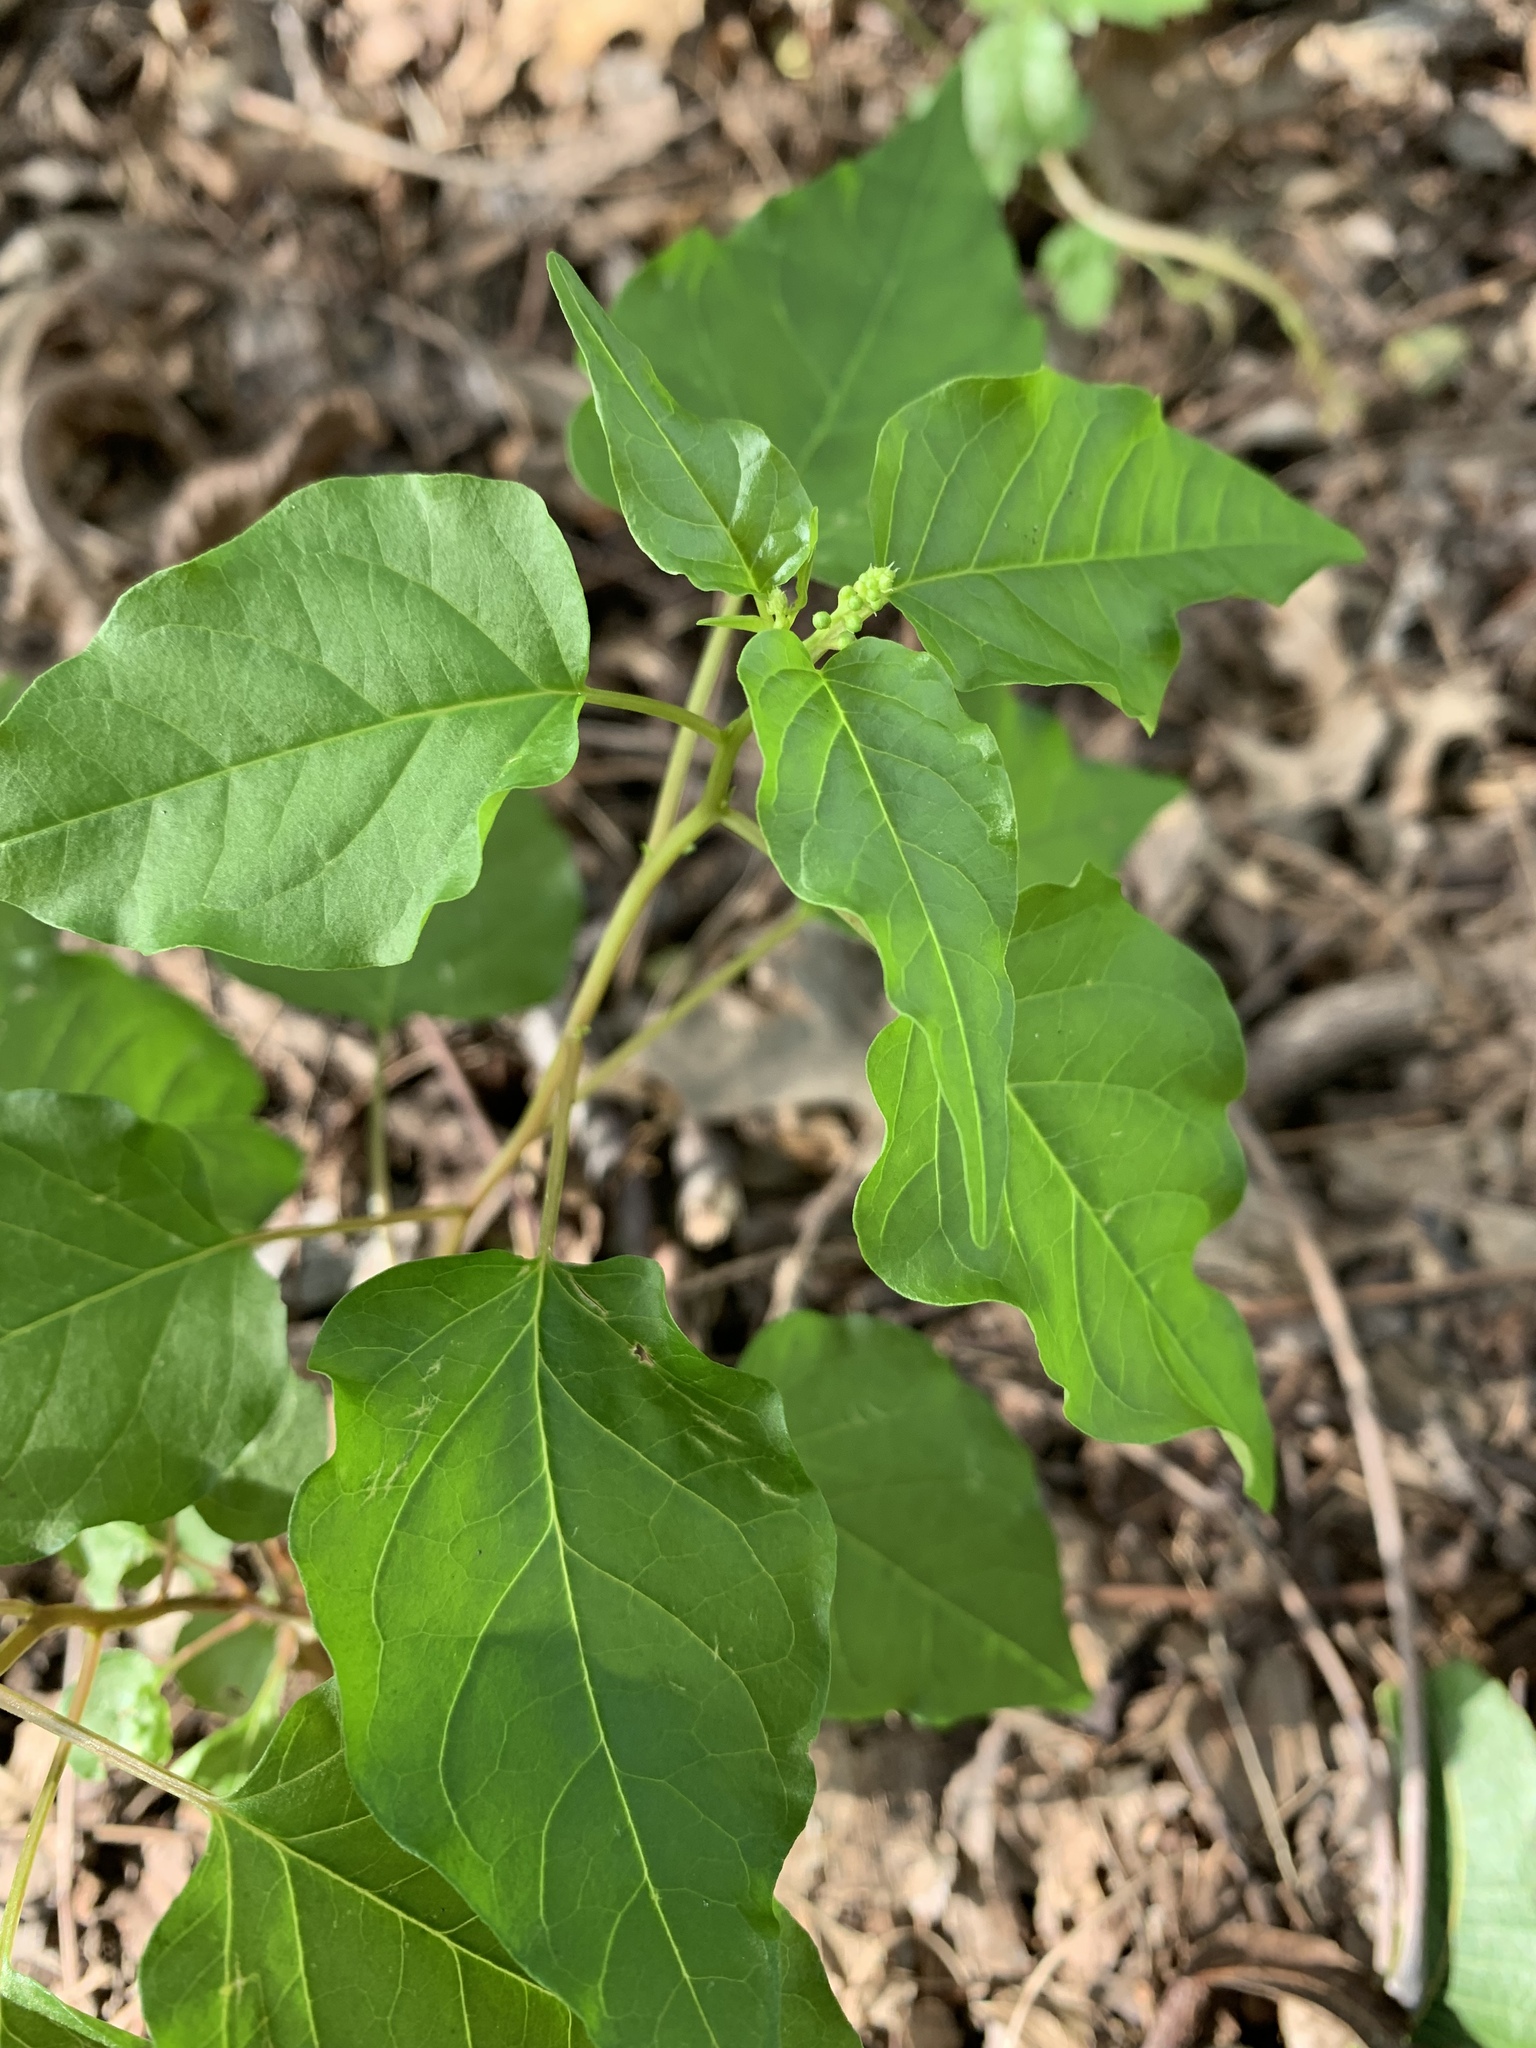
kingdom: Plantae
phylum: Tracheophyta
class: Magnoliopsida
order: Caryophyllales
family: Phytolaccaceae
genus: Rivina
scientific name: Rivina humilis
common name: Rougeplant
